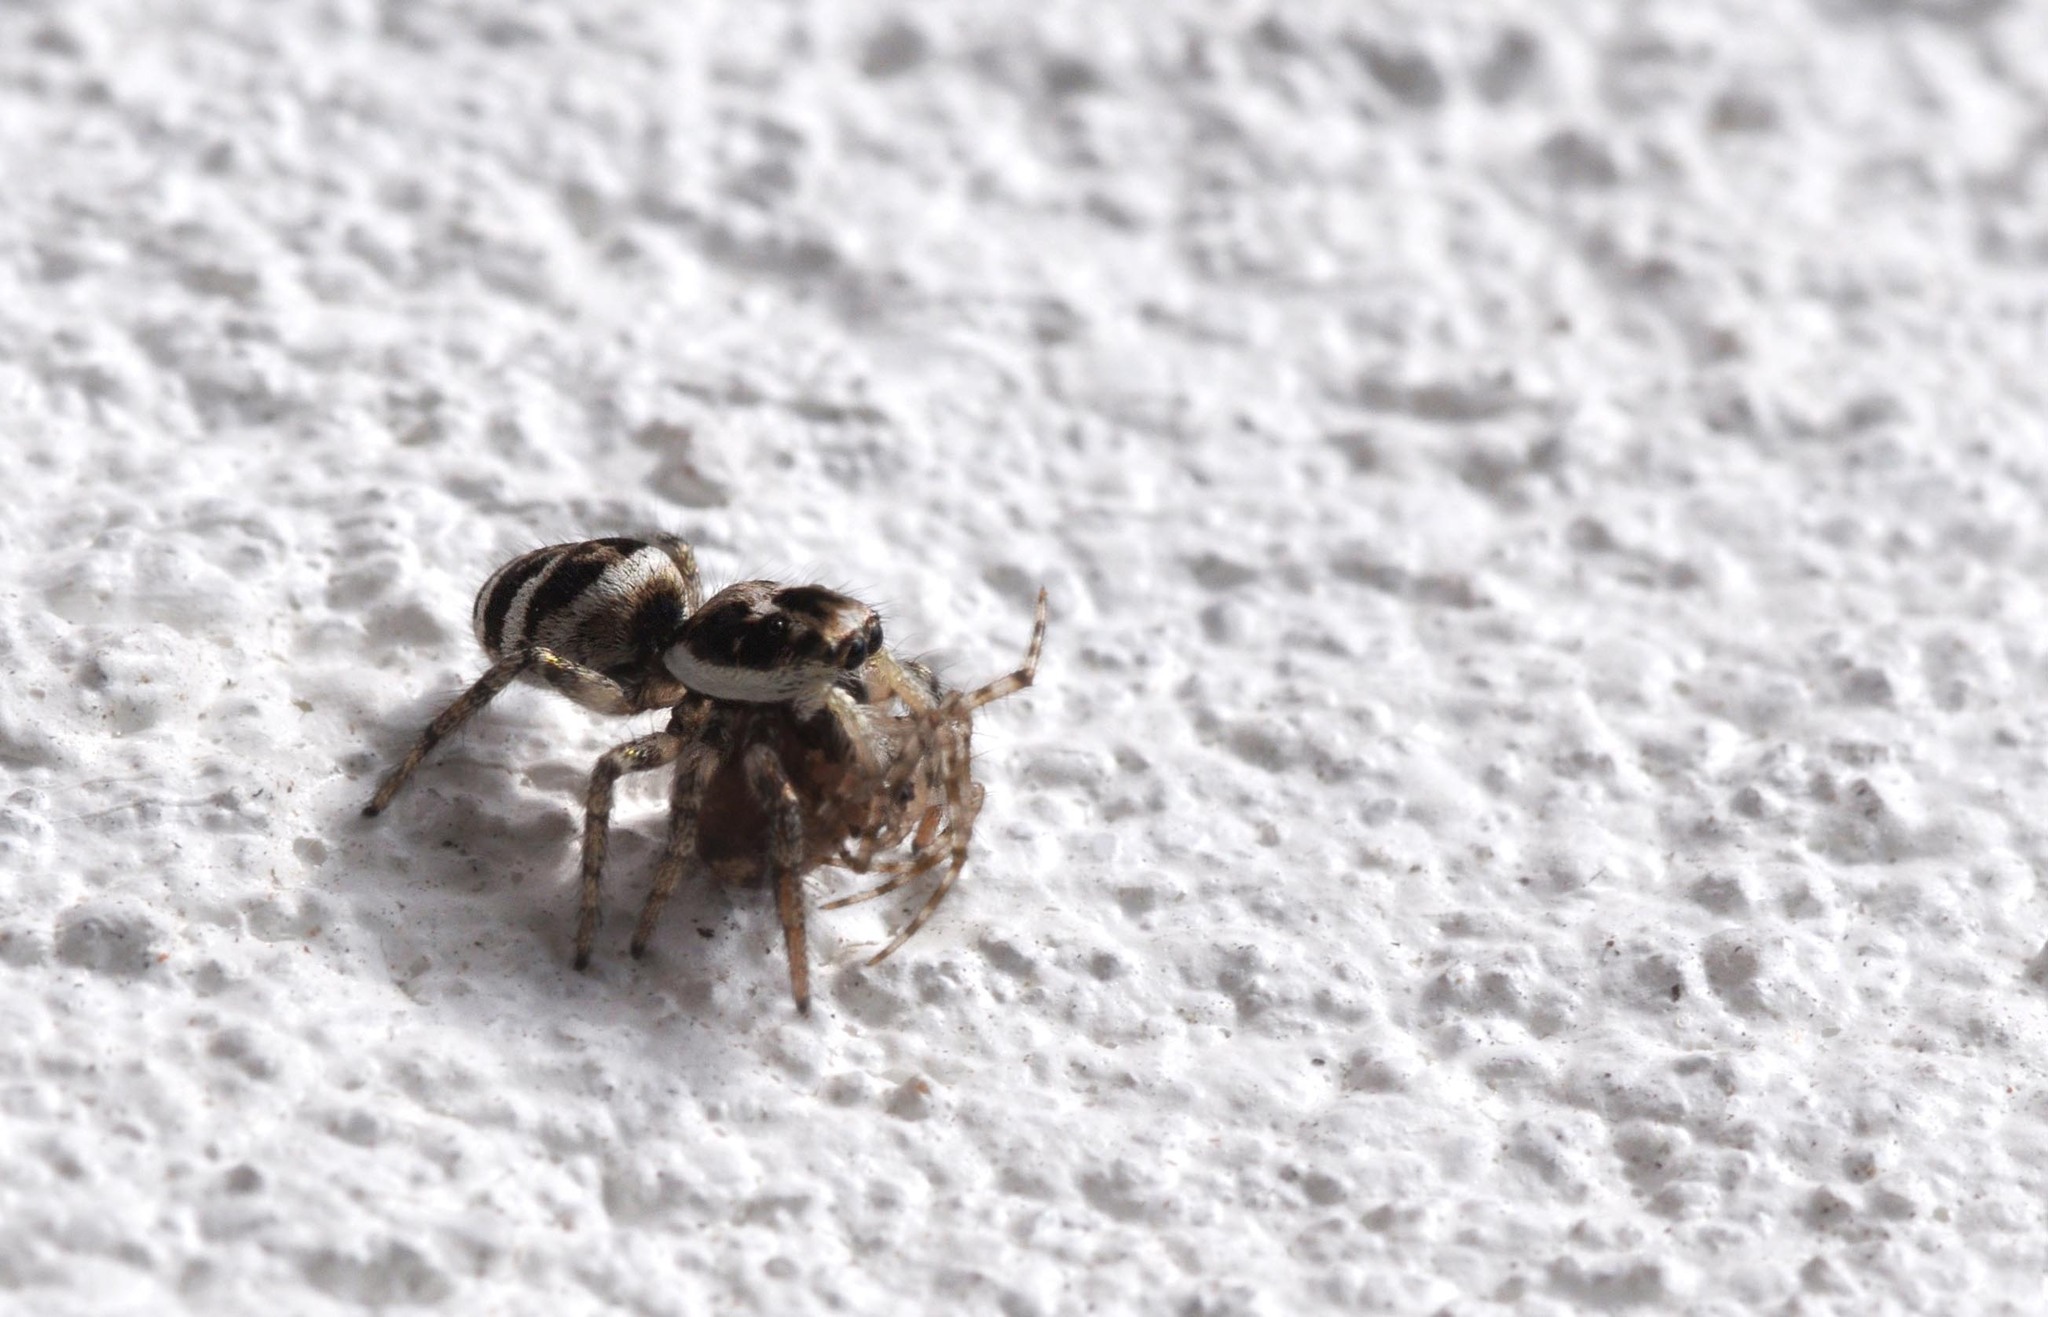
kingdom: Animalia
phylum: Arthropoda
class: Arachnida
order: Araneae
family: Salticidae
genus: Salticus
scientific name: Salticus scenicus
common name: Zebra jumper
